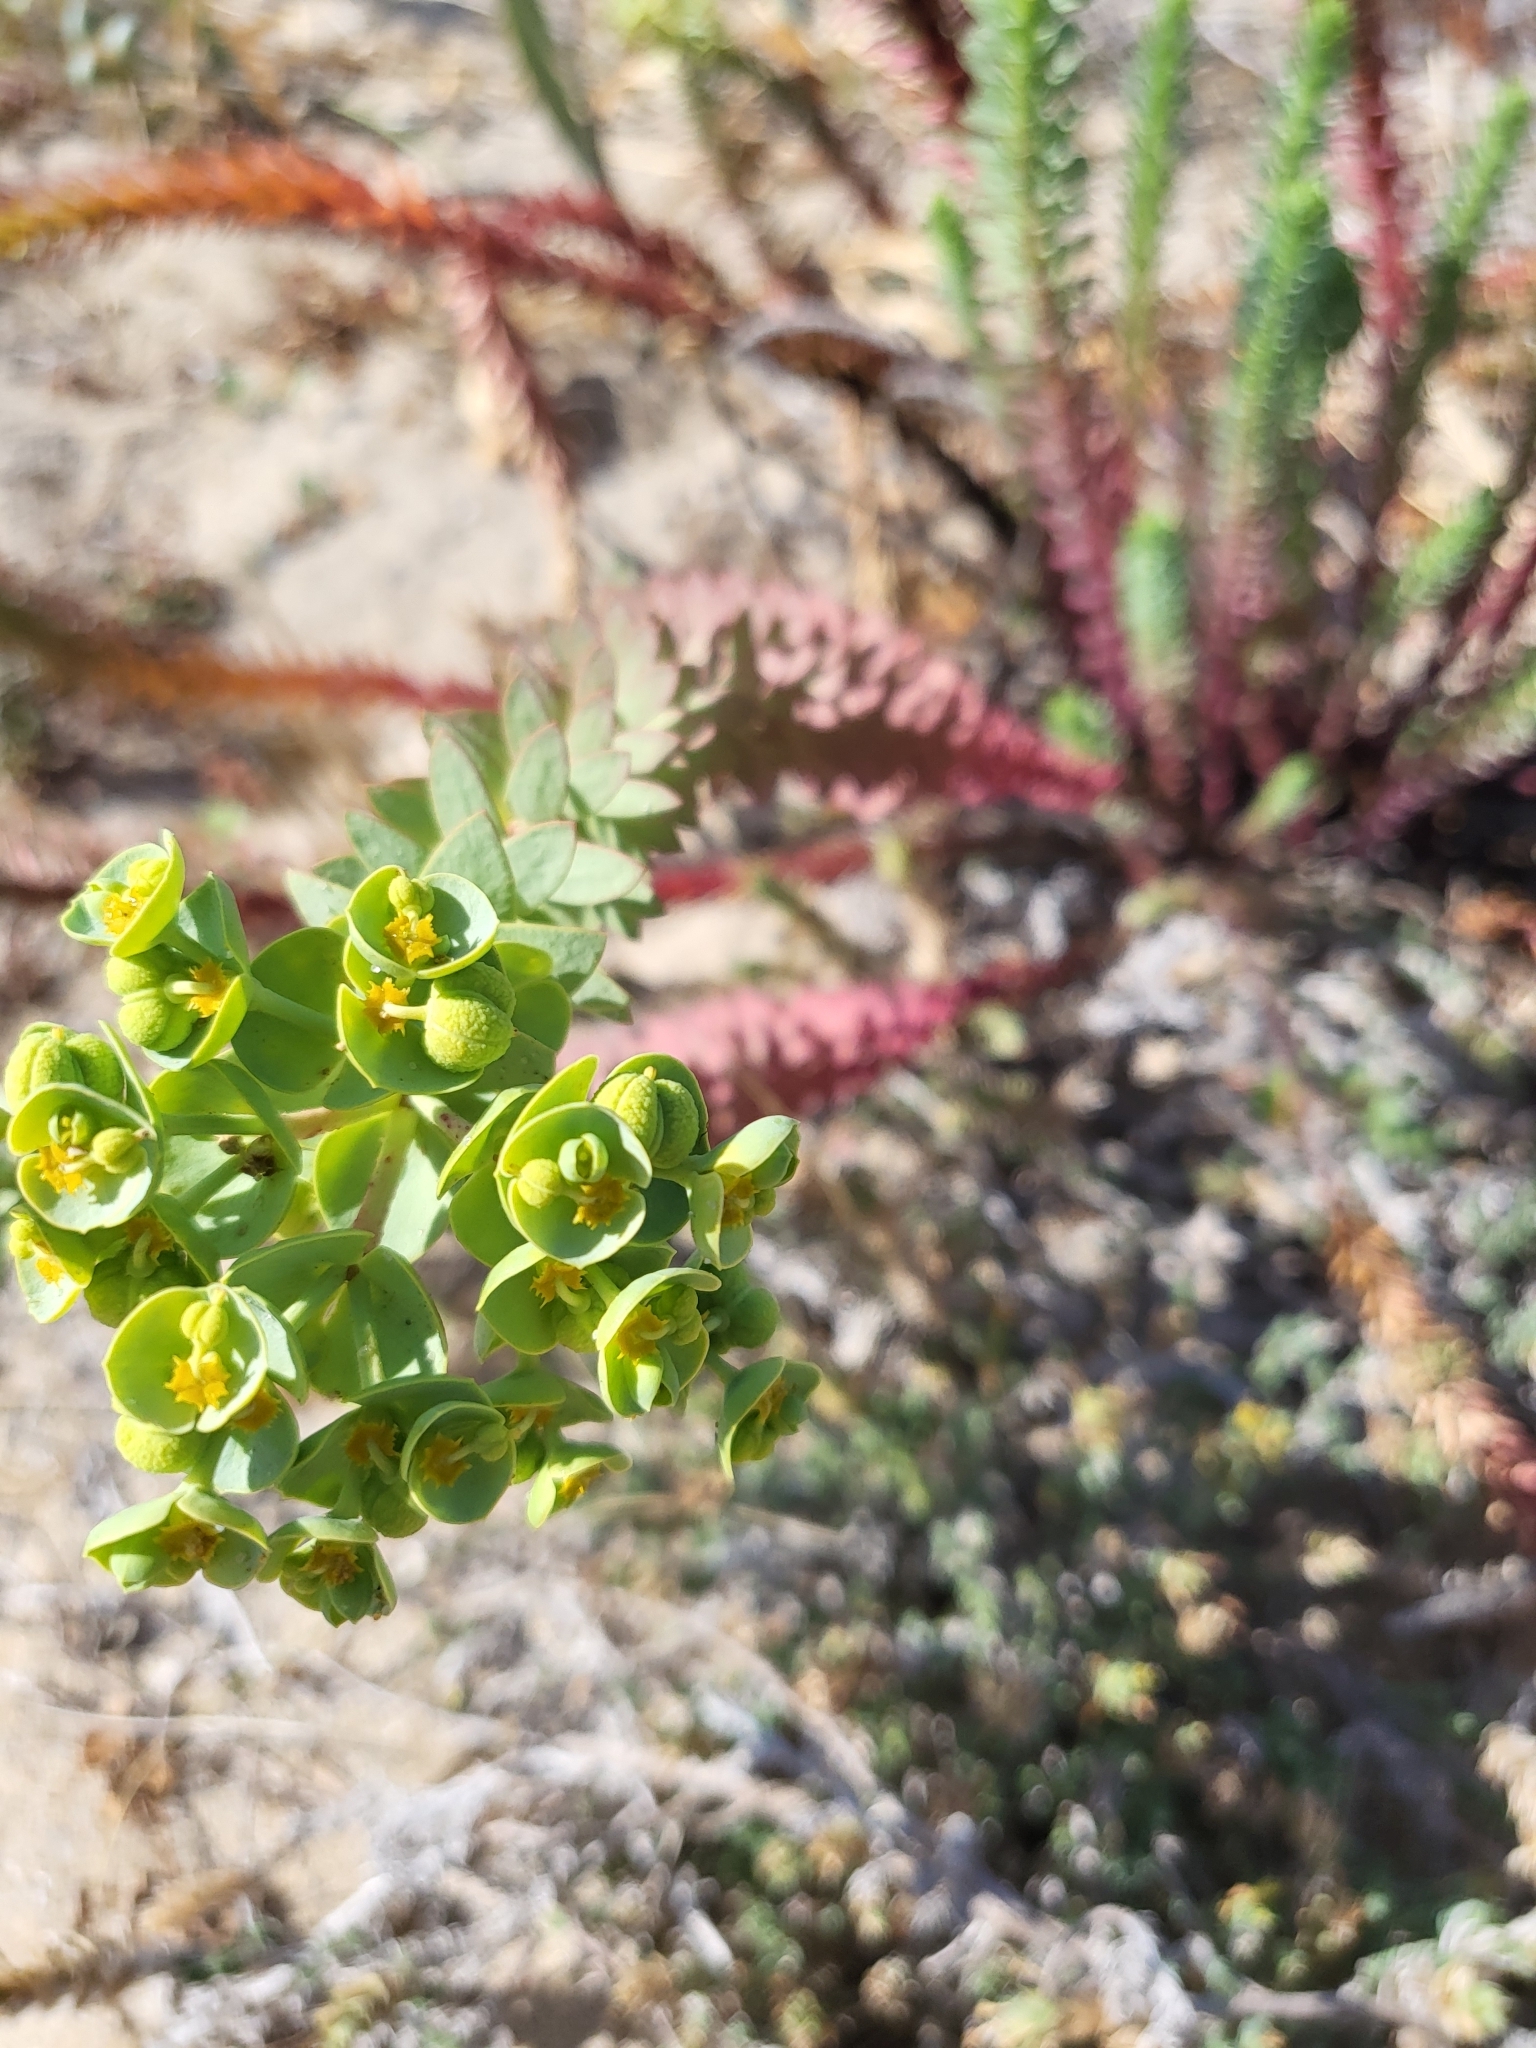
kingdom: Plantae
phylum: Tracheophyta
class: Magnoliopsida
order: Malpighiales
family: Euphorbiaceae
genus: Euphorbia
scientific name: Euphorbia paralias
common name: Sea spurge
